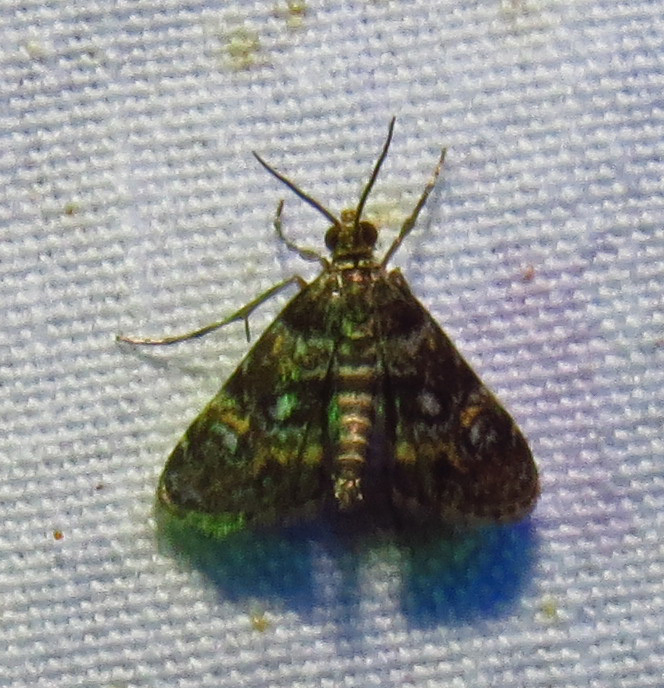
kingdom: Animalia
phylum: Arthropoda
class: Insecta
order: Lepidoptera
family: Crambidae
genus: Elophila
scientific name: Elophila obliteralis
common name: Waterlily leafcutter moth
